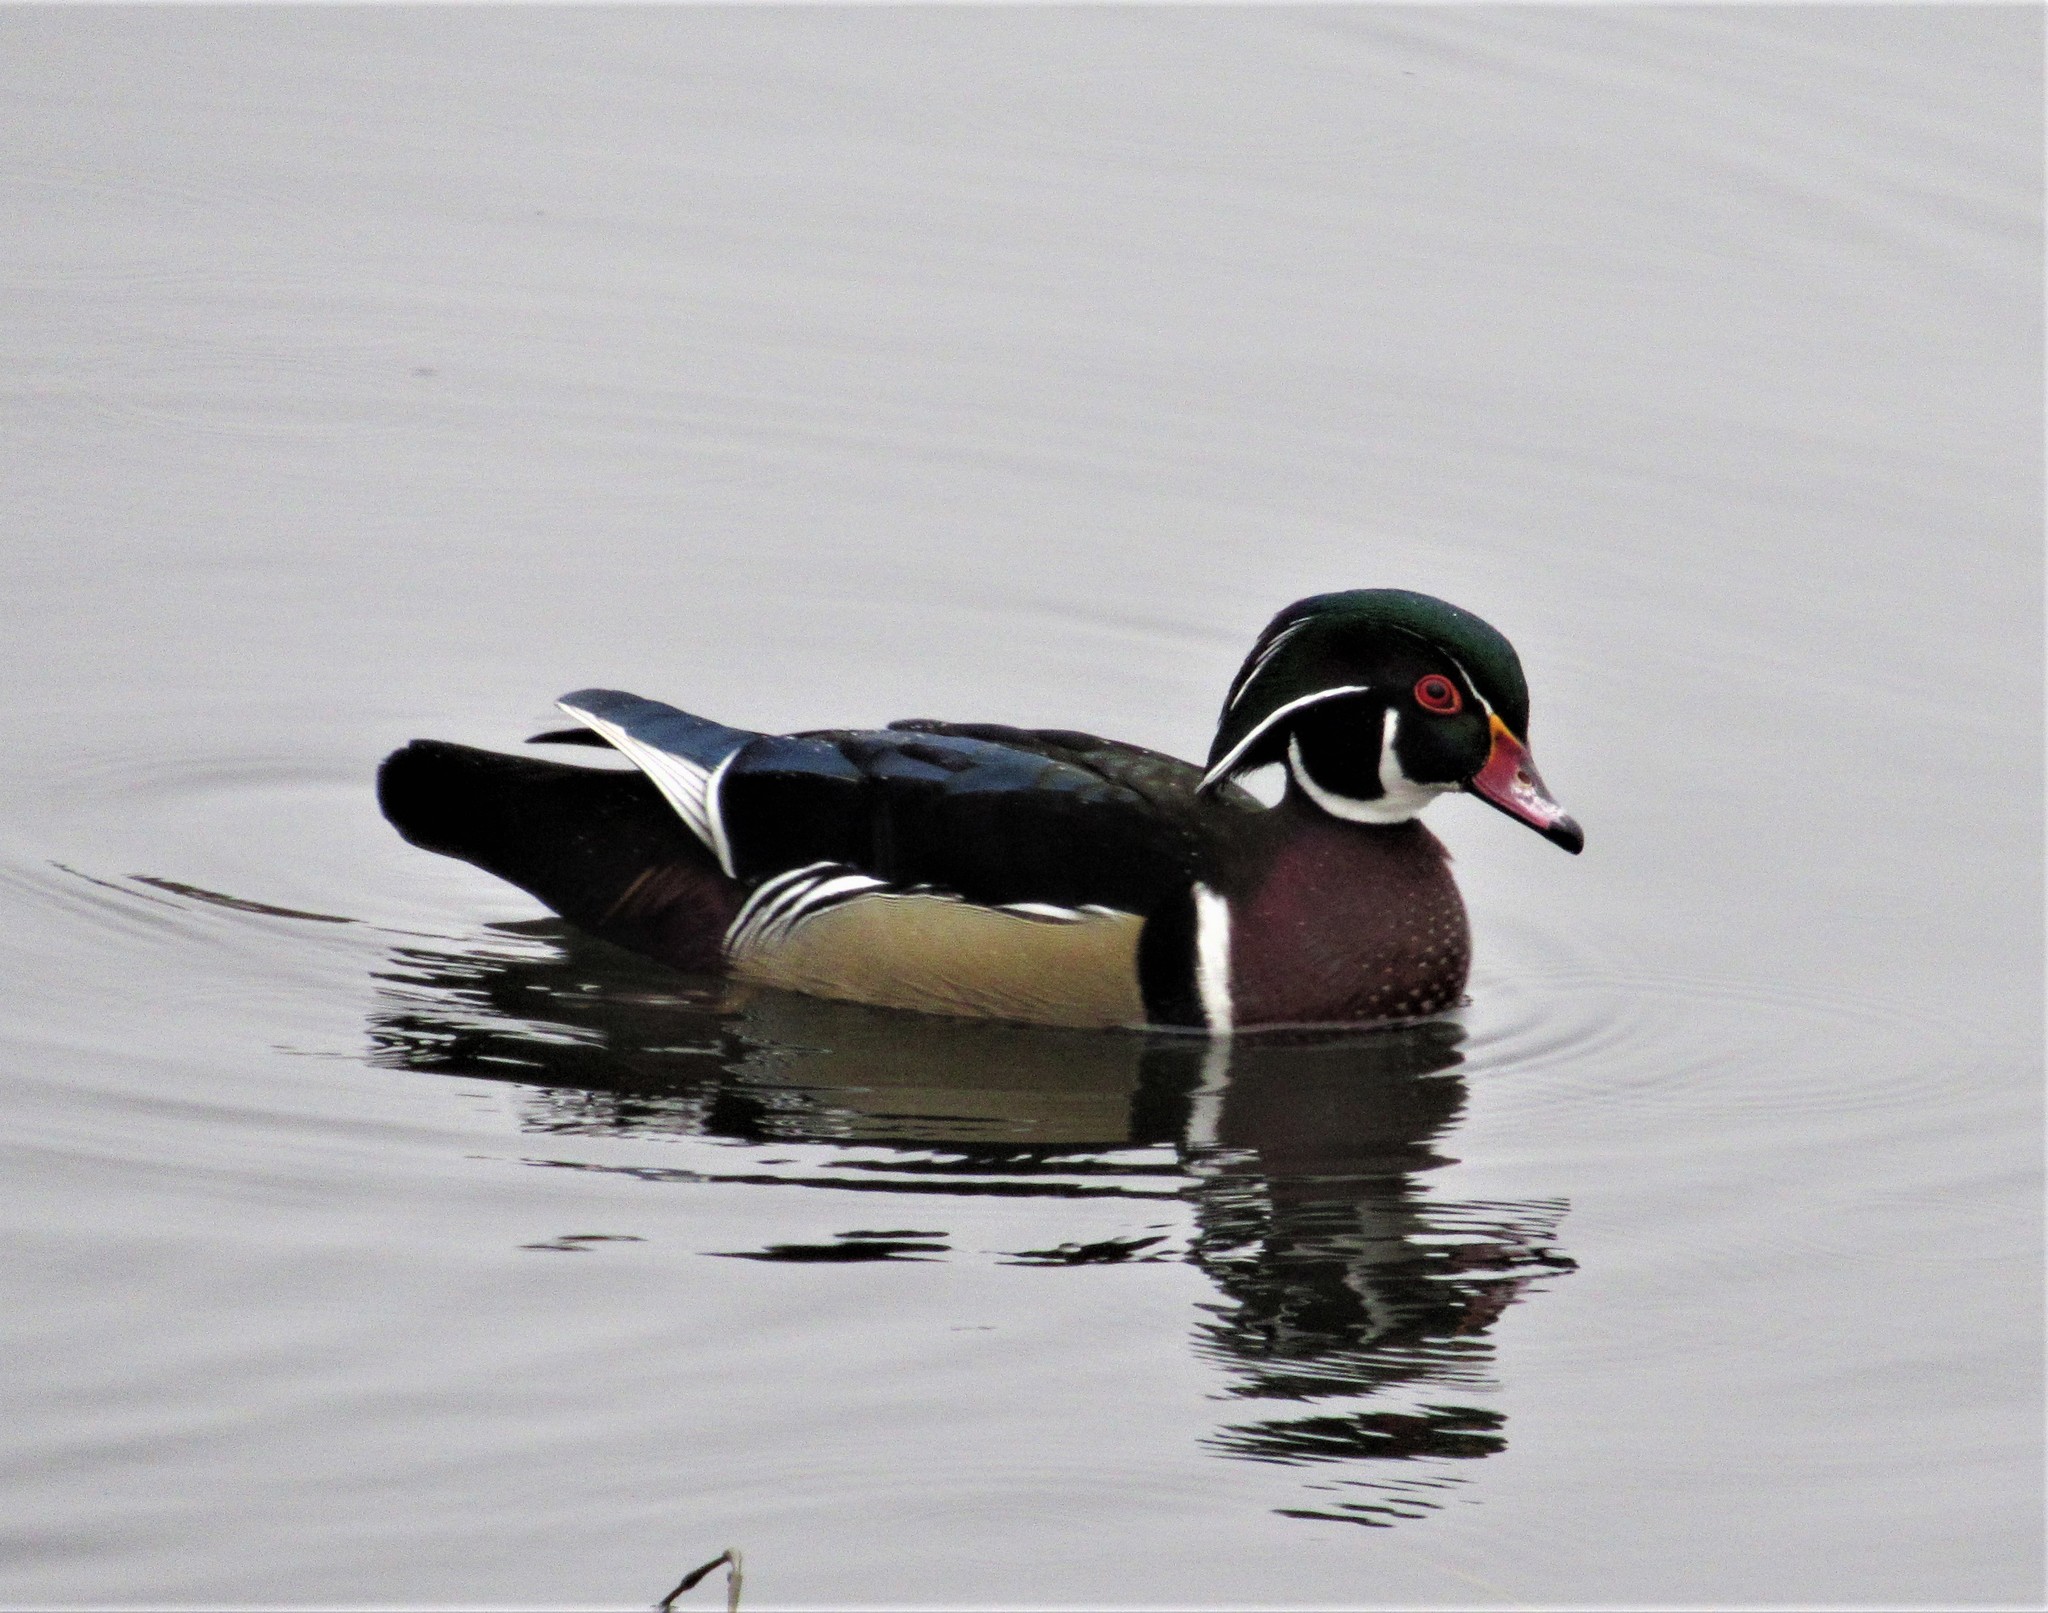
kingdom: Animalia
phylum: Chordata
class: Aves
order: Anseriformes
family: Anatidae
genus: Aix
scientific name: Aix sponsa
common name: Wood duck
